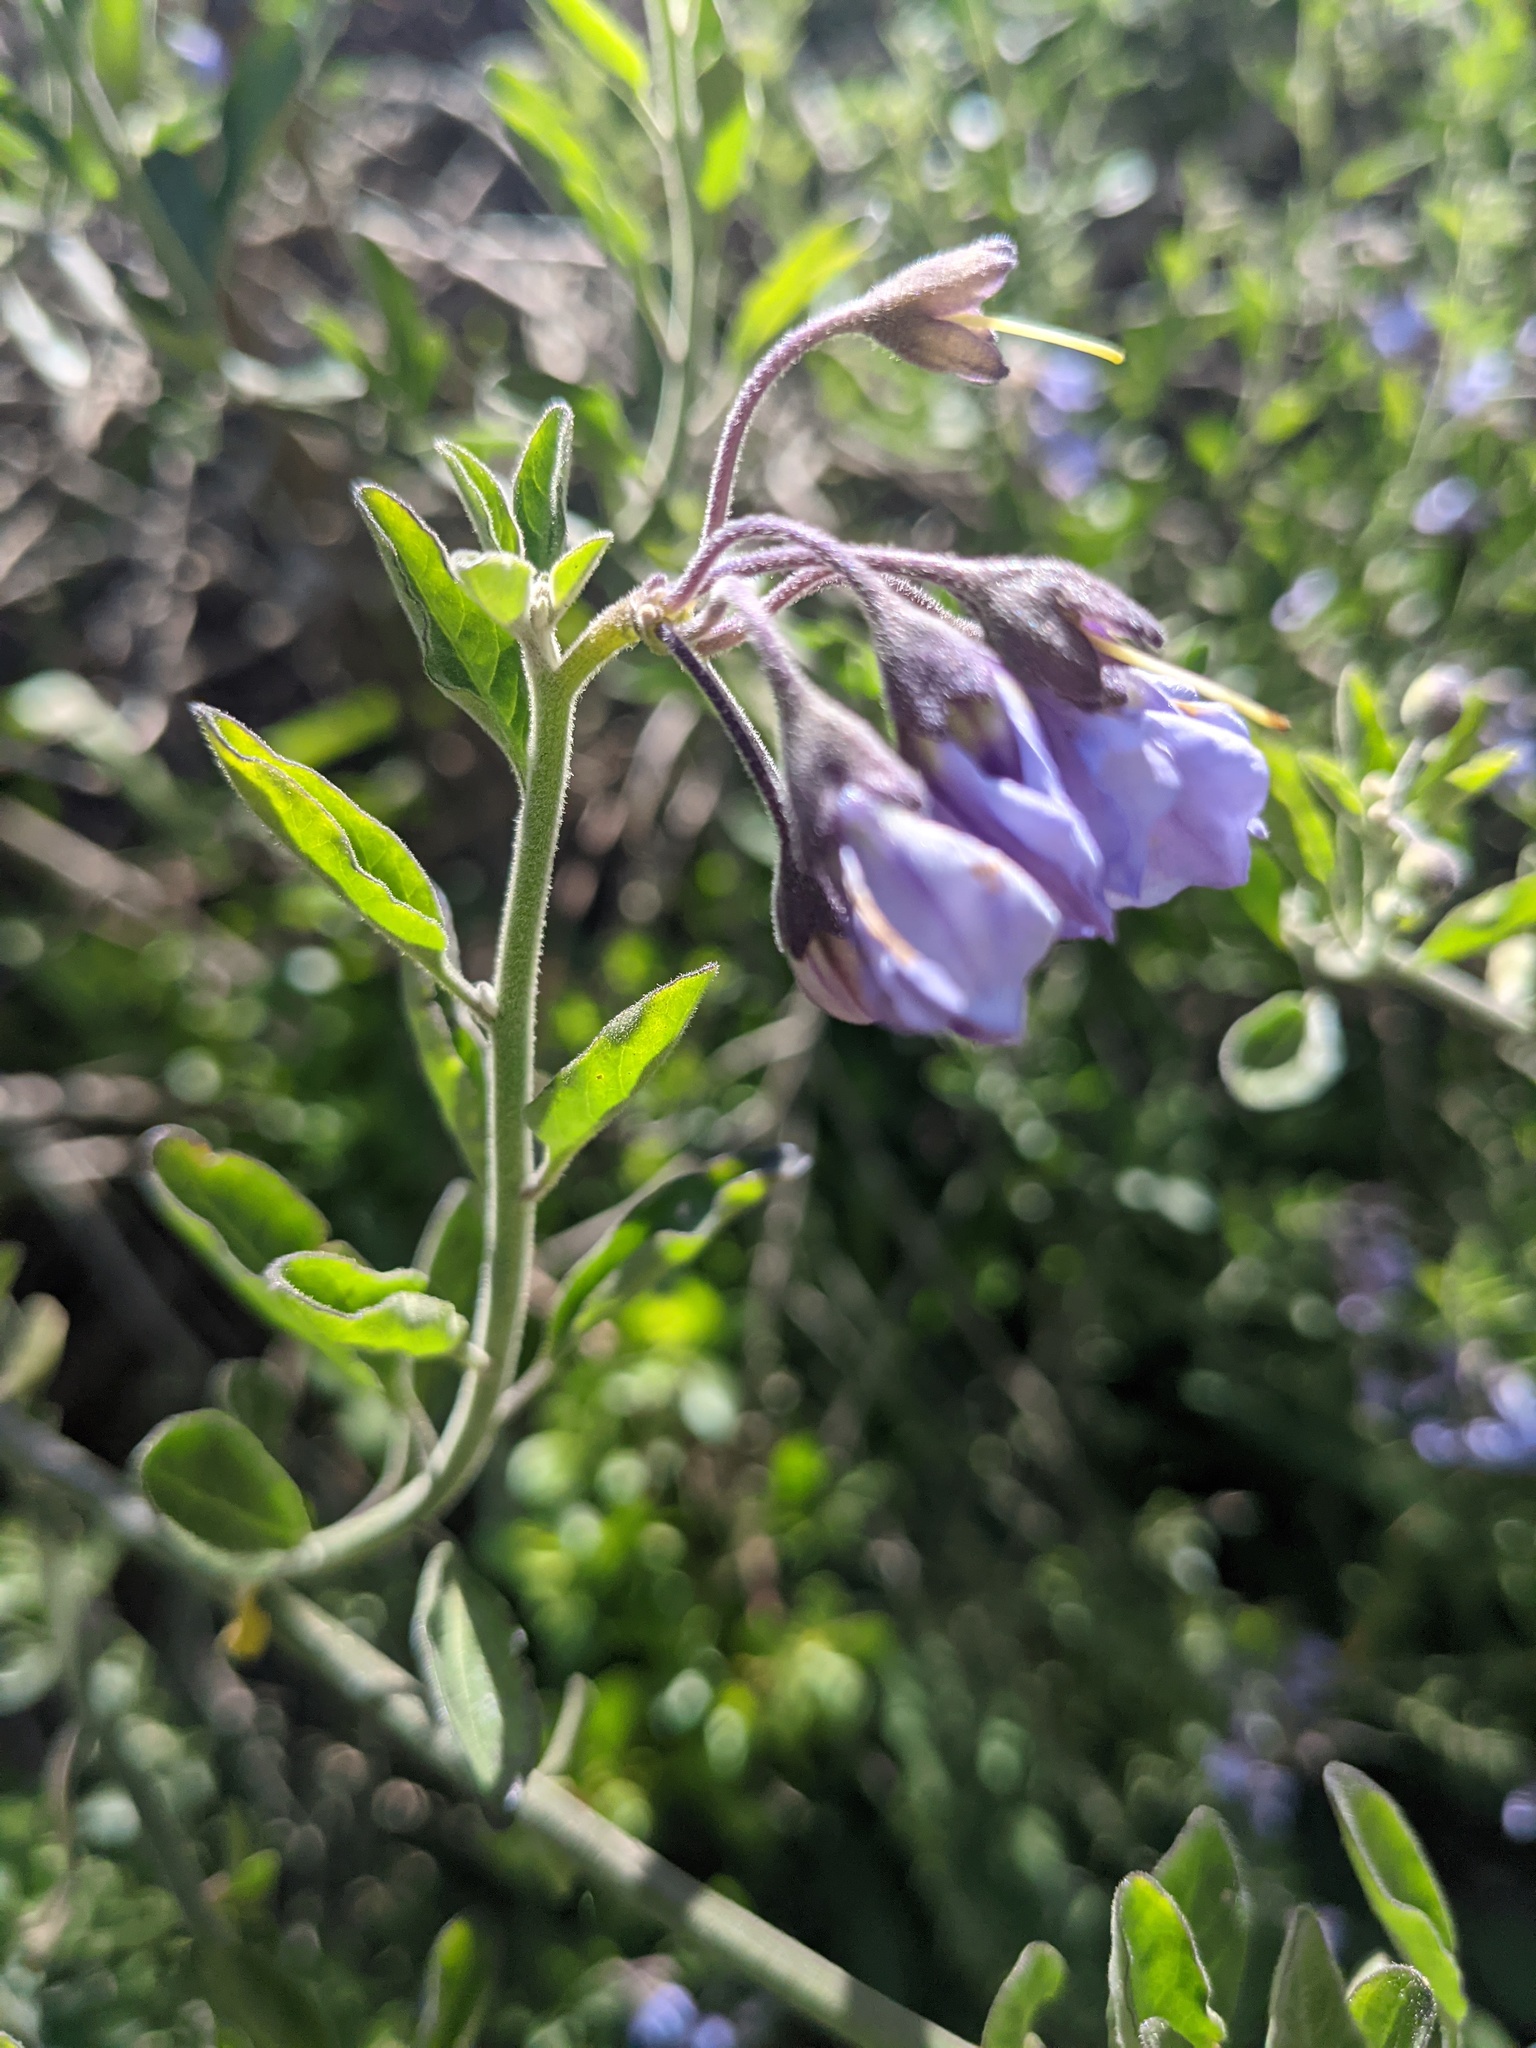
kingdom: Plantae
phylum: Tracheophyta
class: Magnoliopsida
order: Solanales
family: Solanaceae
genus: Solanum
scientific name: Solanum umbelliferum
